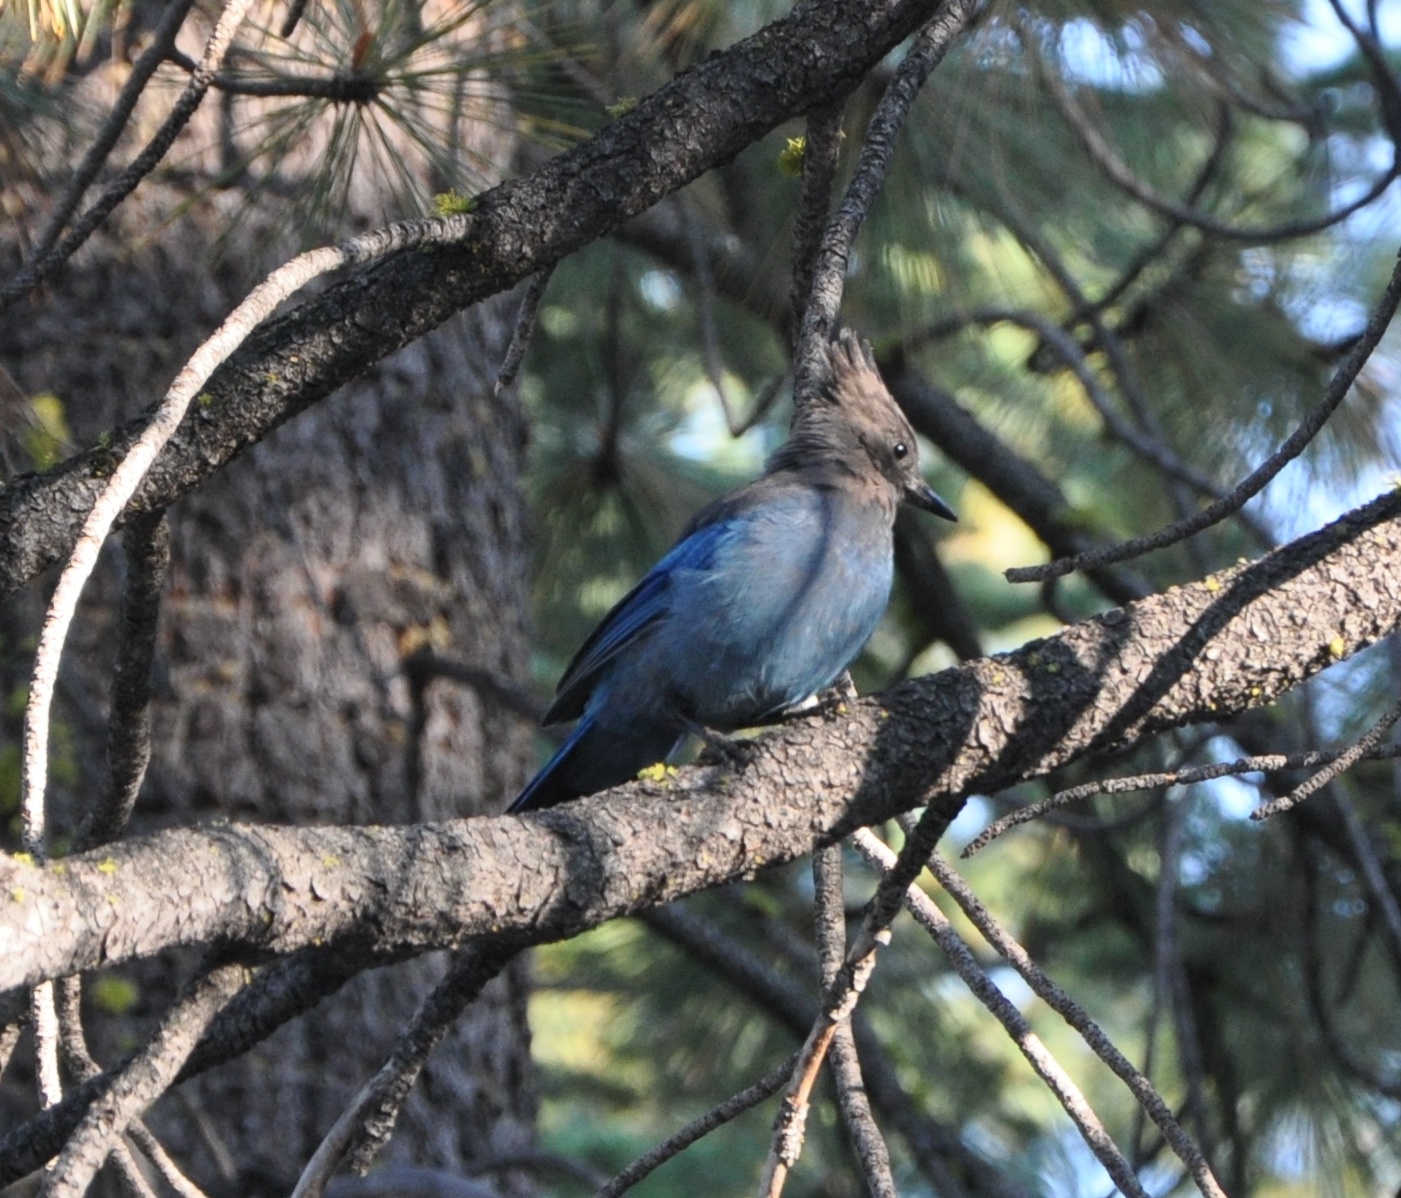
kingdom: Animalia
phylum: Chordata
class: Aves
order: Passeriformes
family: Corvidae
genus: Cyanocitta
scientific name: Cyanocitta stelleri
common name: Steller's jay
